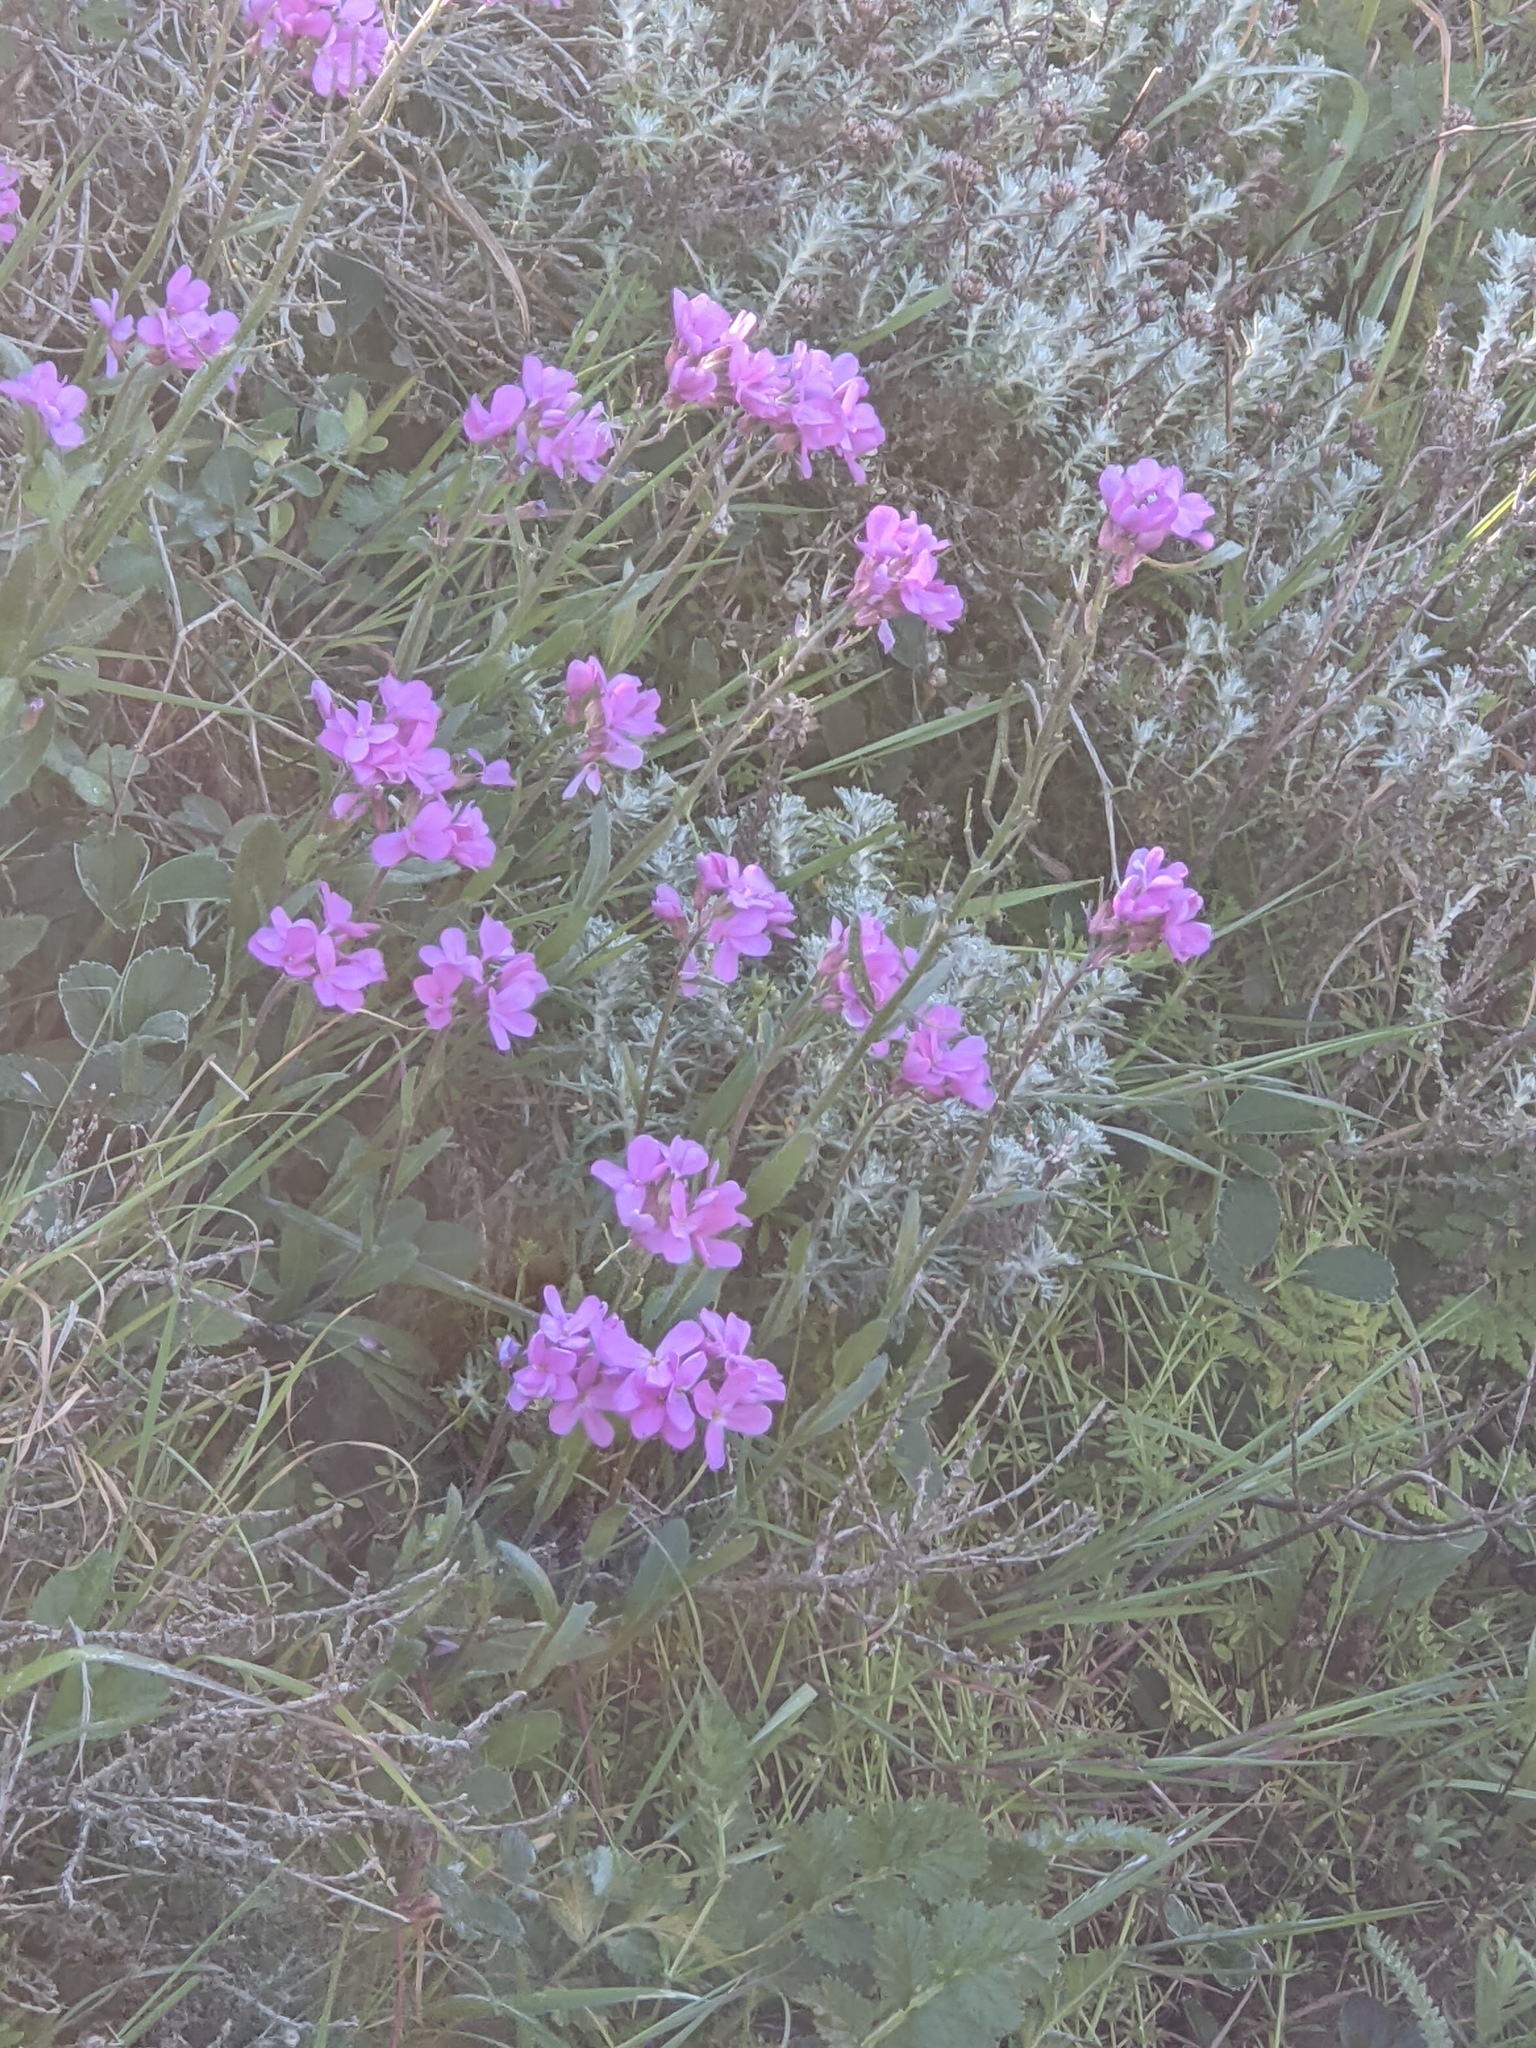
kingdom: Plantae
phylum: Tracheophyta
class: Magnoliopsida
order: Brassicales
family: Brassicaceae
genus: Arabis
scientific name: Arabis blepharophylla
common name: Rose rockcress
